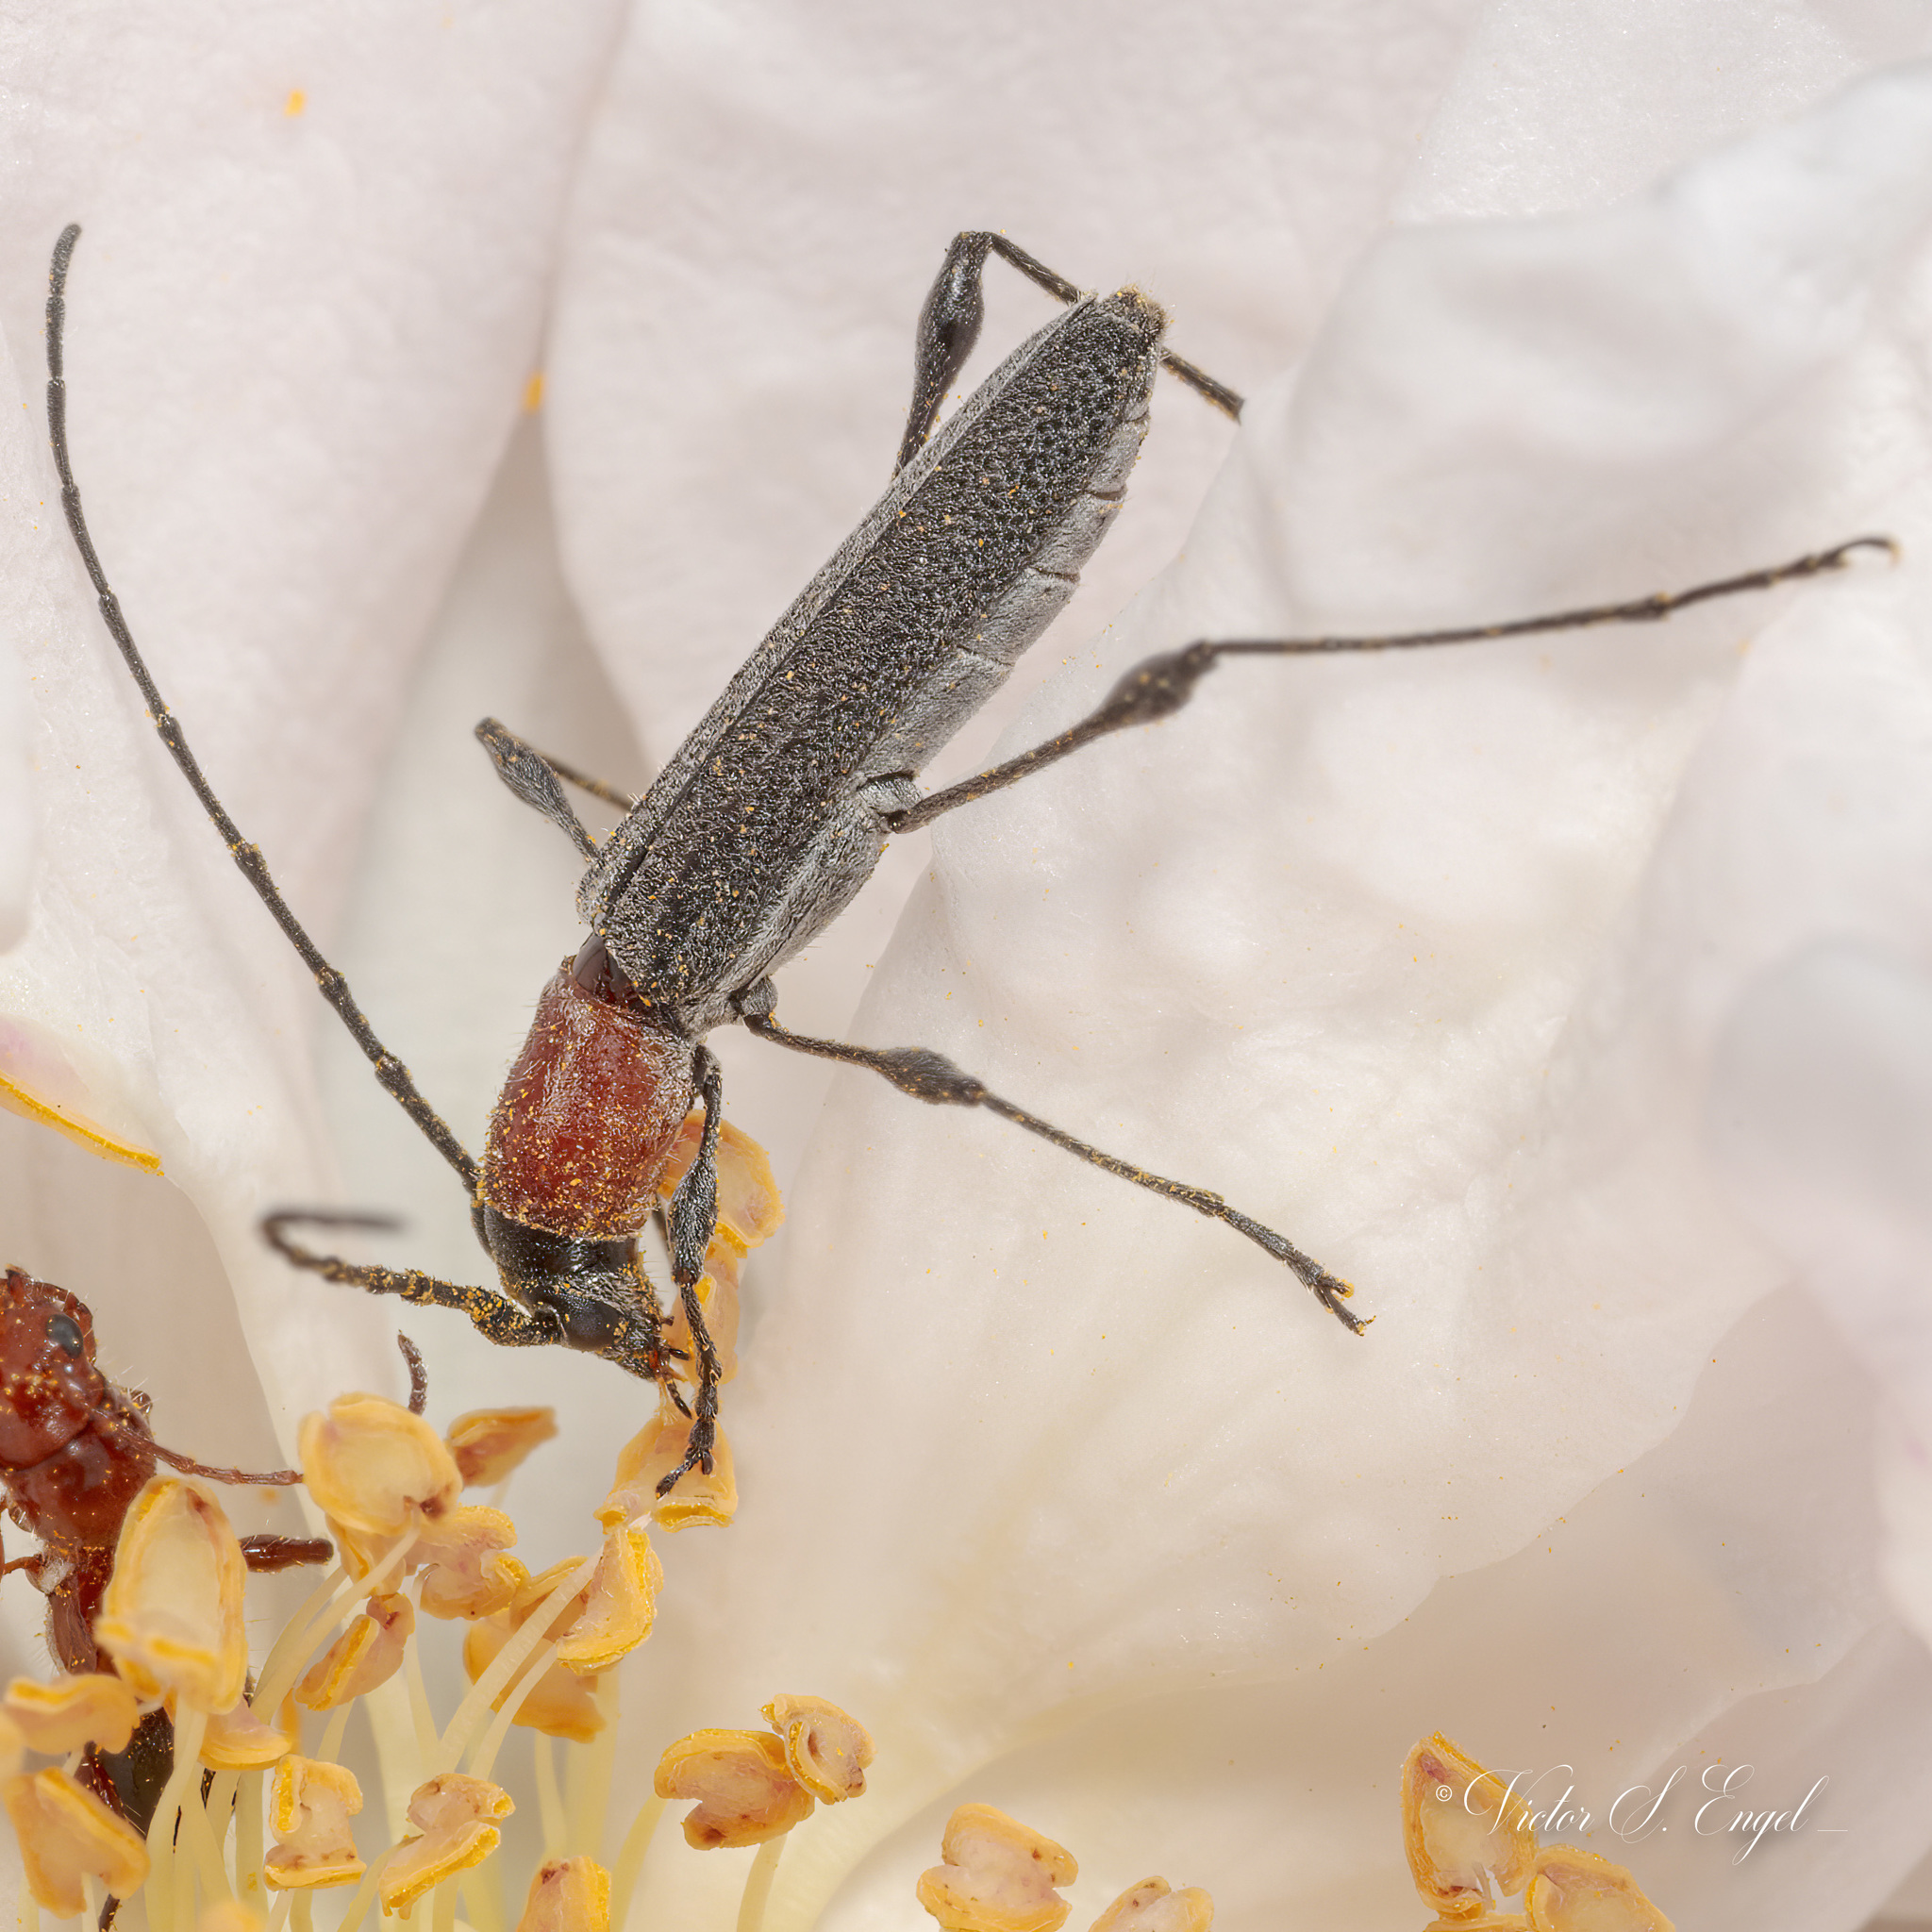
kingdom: Animalia
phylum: Arthropoda
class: Insecta
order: Coleoptera
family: Cerambycidae
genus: Rhopalophora
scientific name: Rhopalophora longipes
